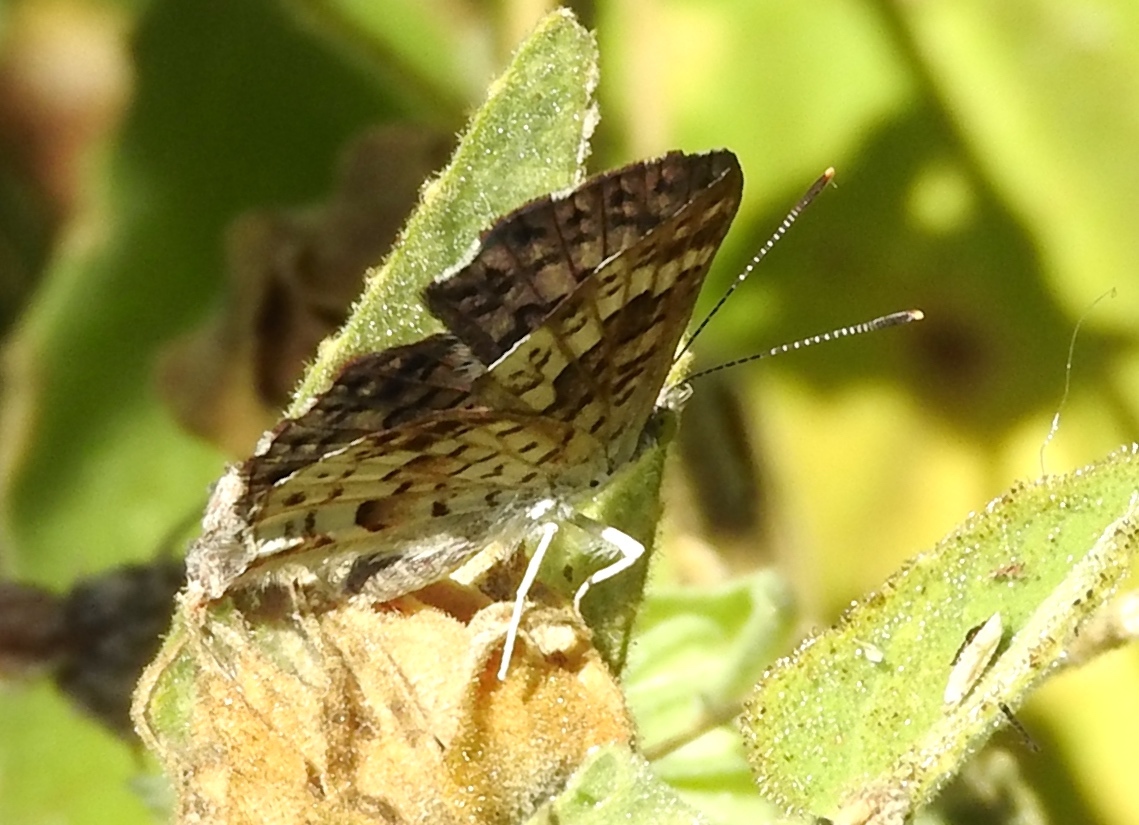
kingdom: Animalia
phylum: Arthropoda
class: Insecta
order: Lepidoptera
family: Riodinidae
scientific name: Riodinidae
